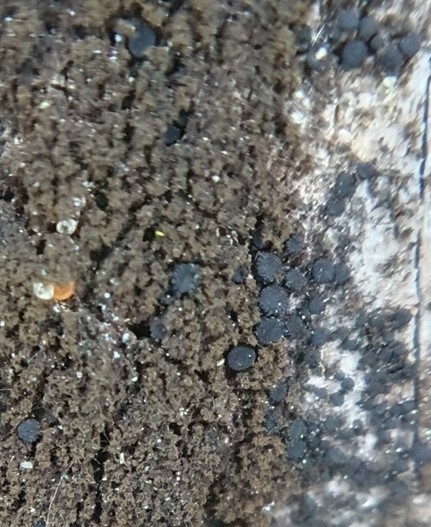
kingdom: Fungi
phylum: Ascomycota
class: Sareomycetes
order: Sareales
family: Sareaceae
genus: Sarea
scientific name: Sarea
